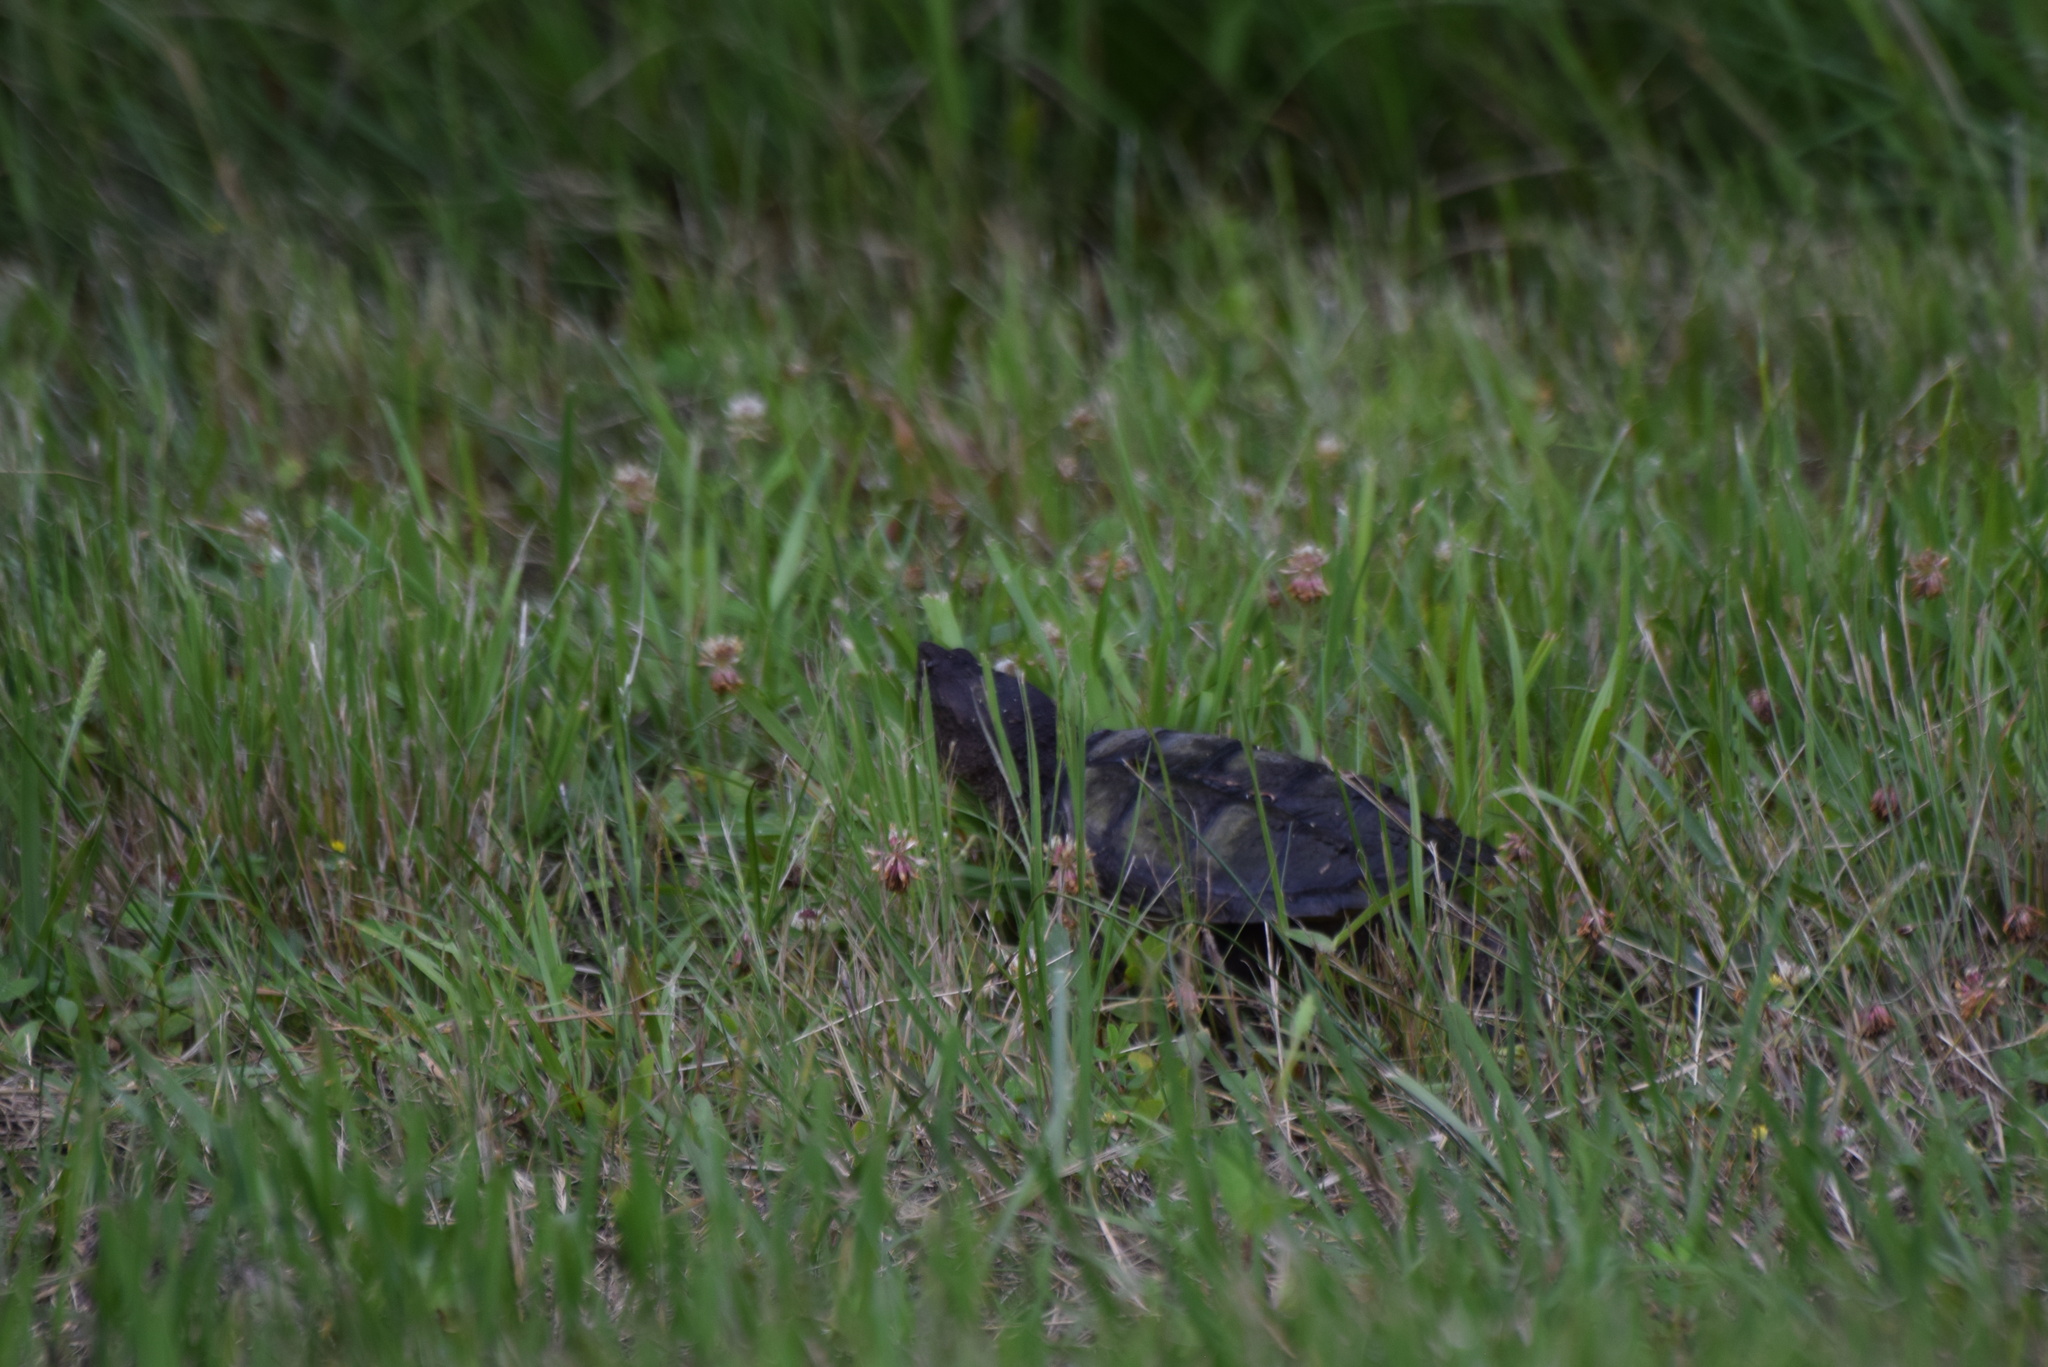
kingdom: Animalia
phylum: Chordata
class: Testudines
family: Chelydridae
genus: Chelydra
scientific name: Chelydra serpentina
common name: Common snapping turtle
